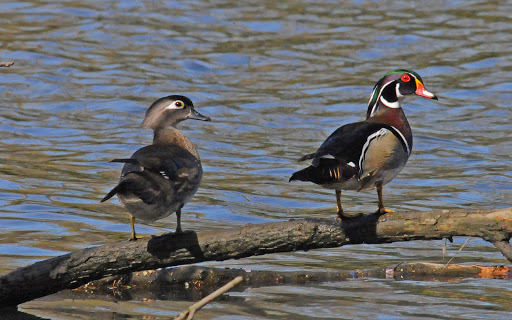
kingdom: Animalia
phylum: Chordata
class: Aves
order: Anseriformes
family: Anatidae
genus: Aix
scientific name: Aix sponsa
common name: Wood duck
